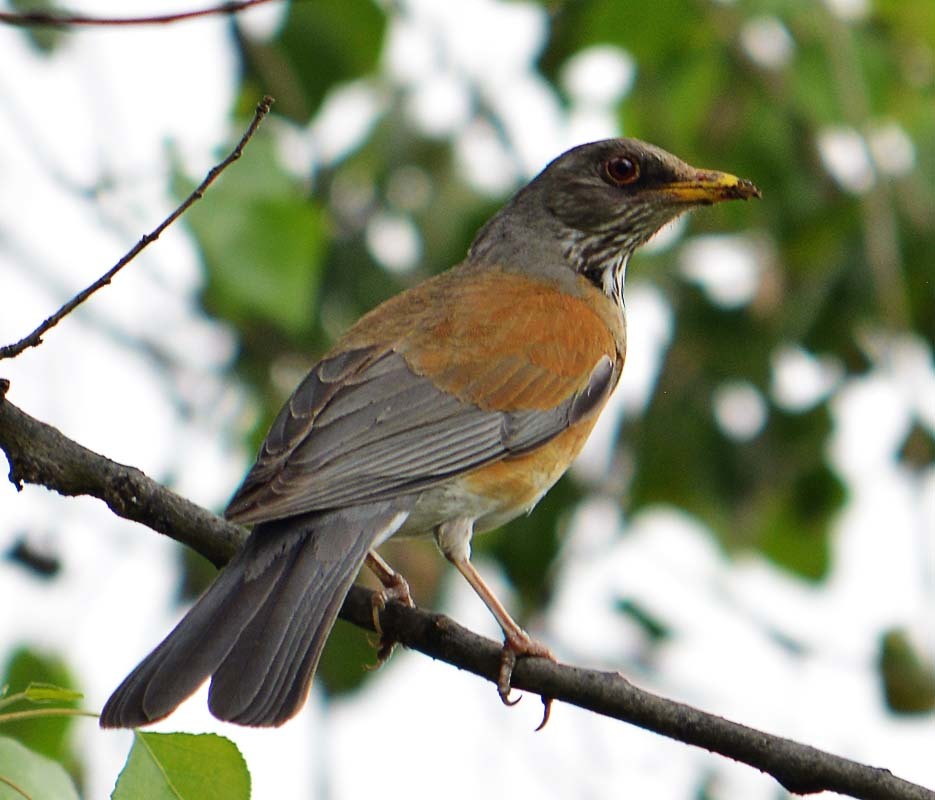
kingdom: Animalia
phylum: Chordata
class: Aves
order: Passeriformes
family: Turdidae
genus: Turdus
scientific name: Turdus rufopalliatus
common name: Rufous-backed robin
